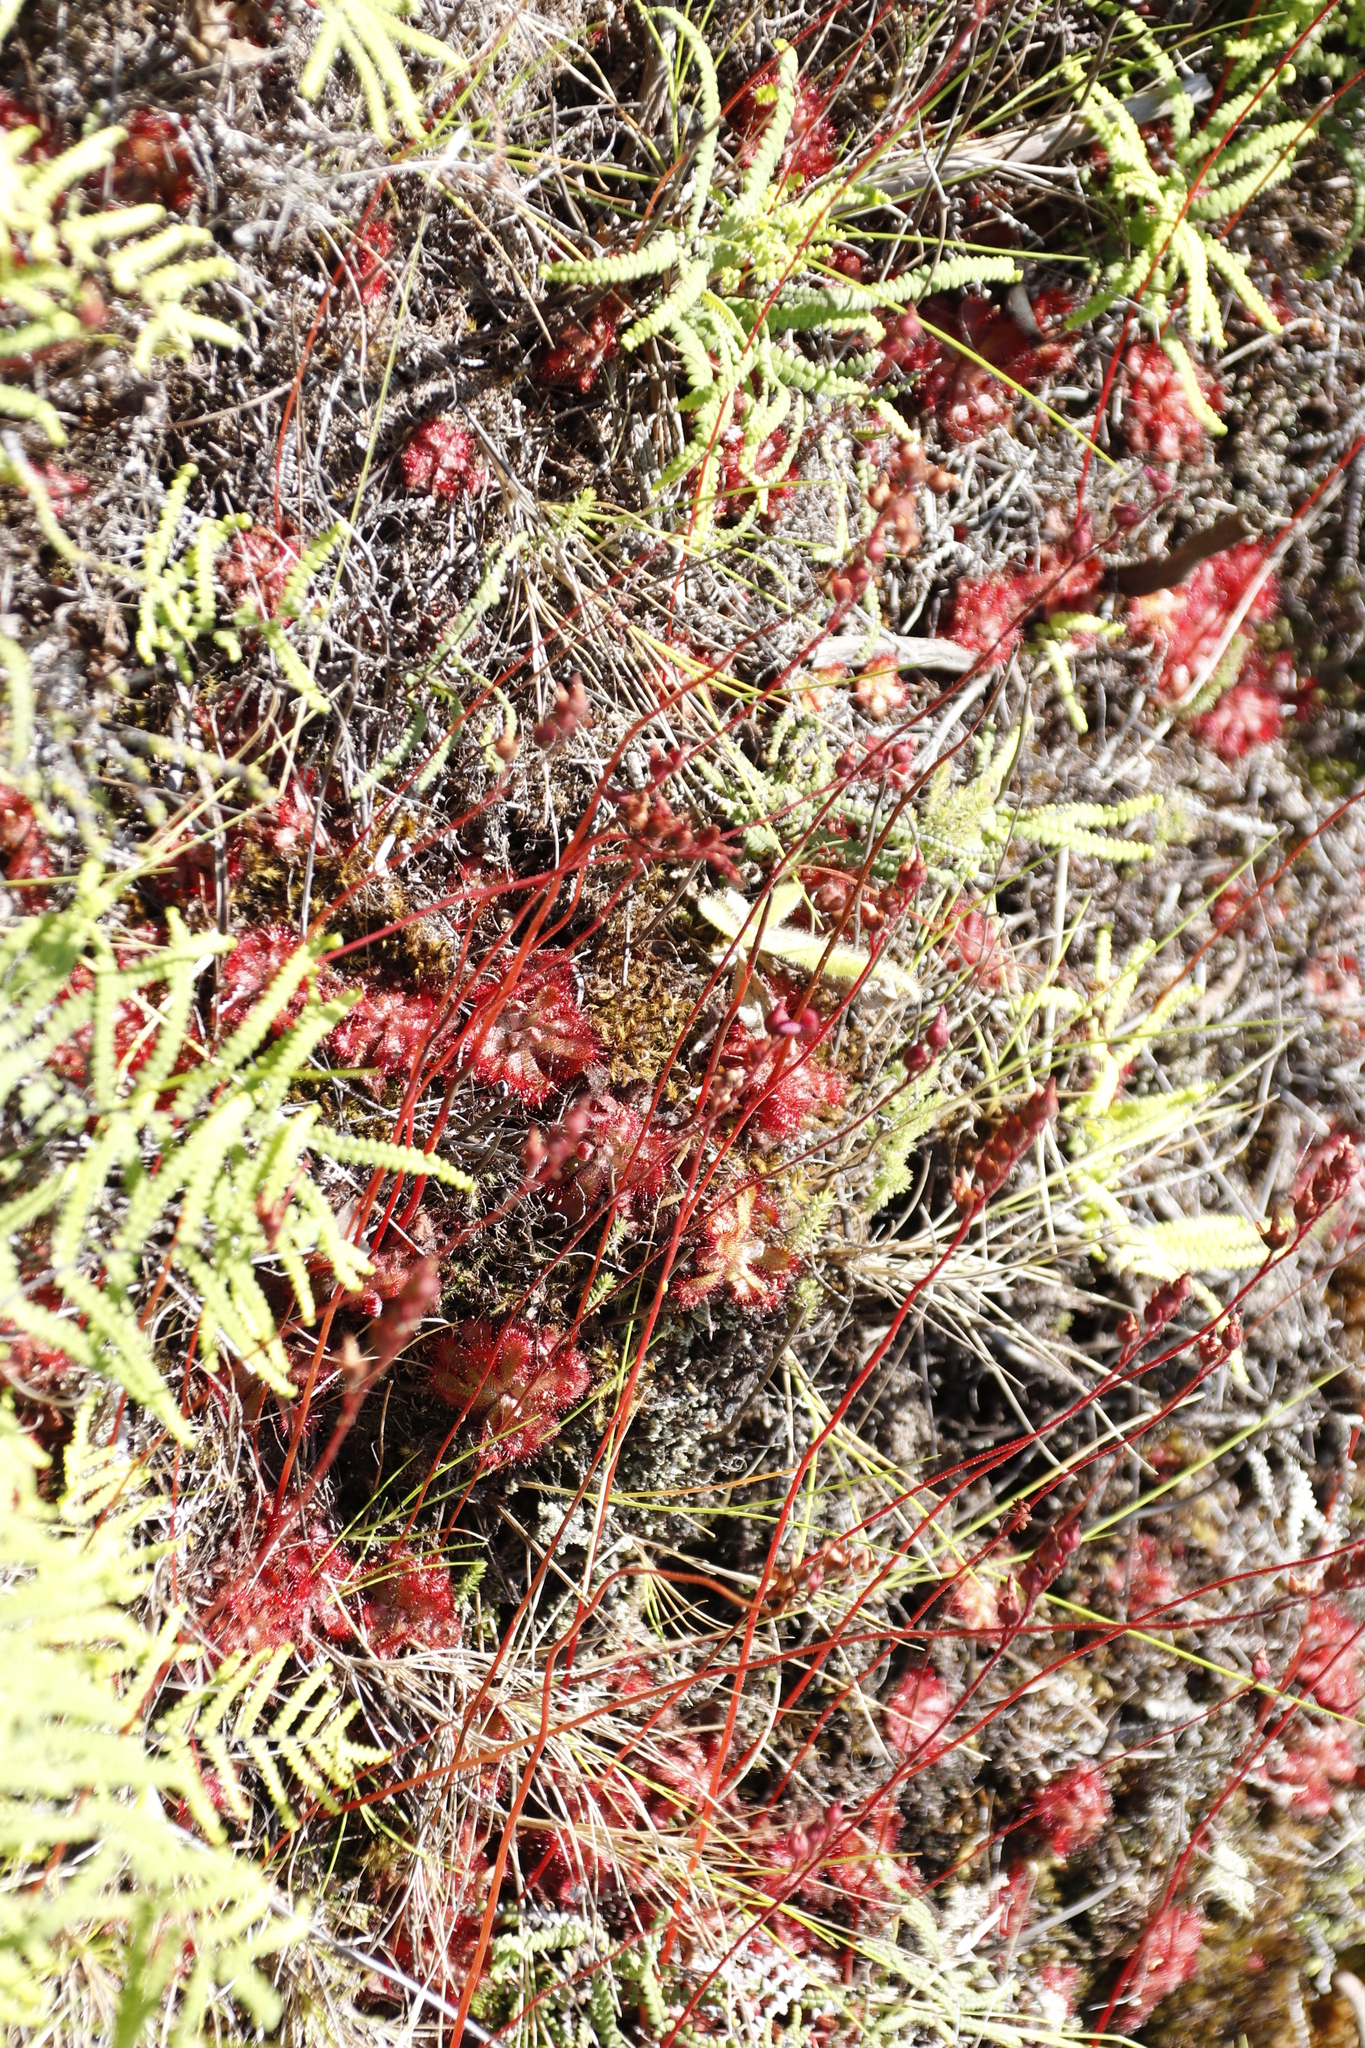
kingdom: Plantae
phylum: Tracheophyta
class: Magnoliopsida
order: Caryophyllales
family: Droseraceae
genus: Drosera
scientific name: Drosera aliciae
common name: Alice sundew
